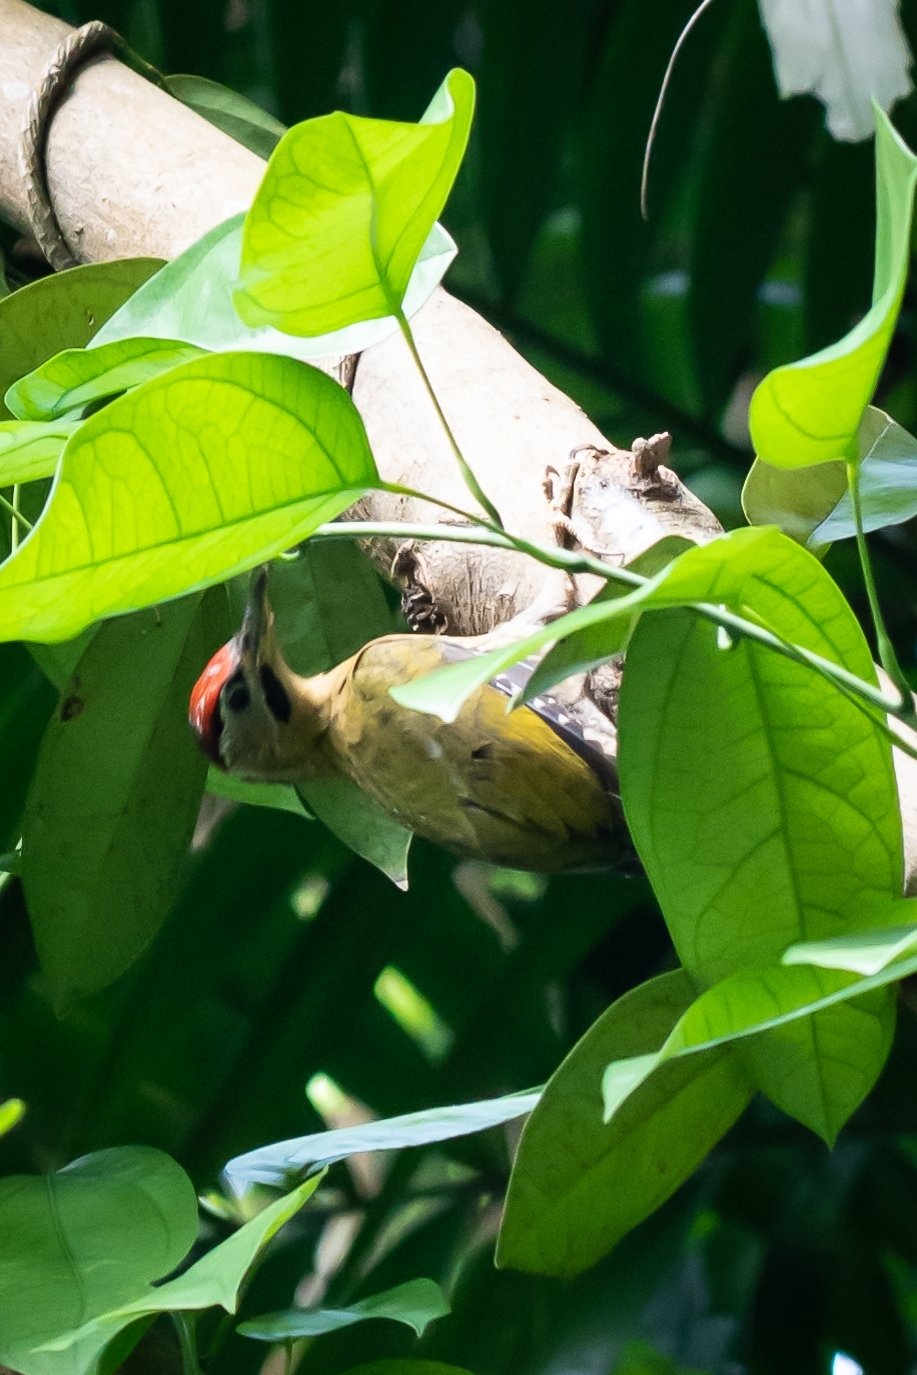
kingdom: Animalia
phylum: Chordata
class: Aves
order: Piciformes
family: Picidae
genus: Picus
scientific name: Picus vittatus
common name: Laced woodpecker
